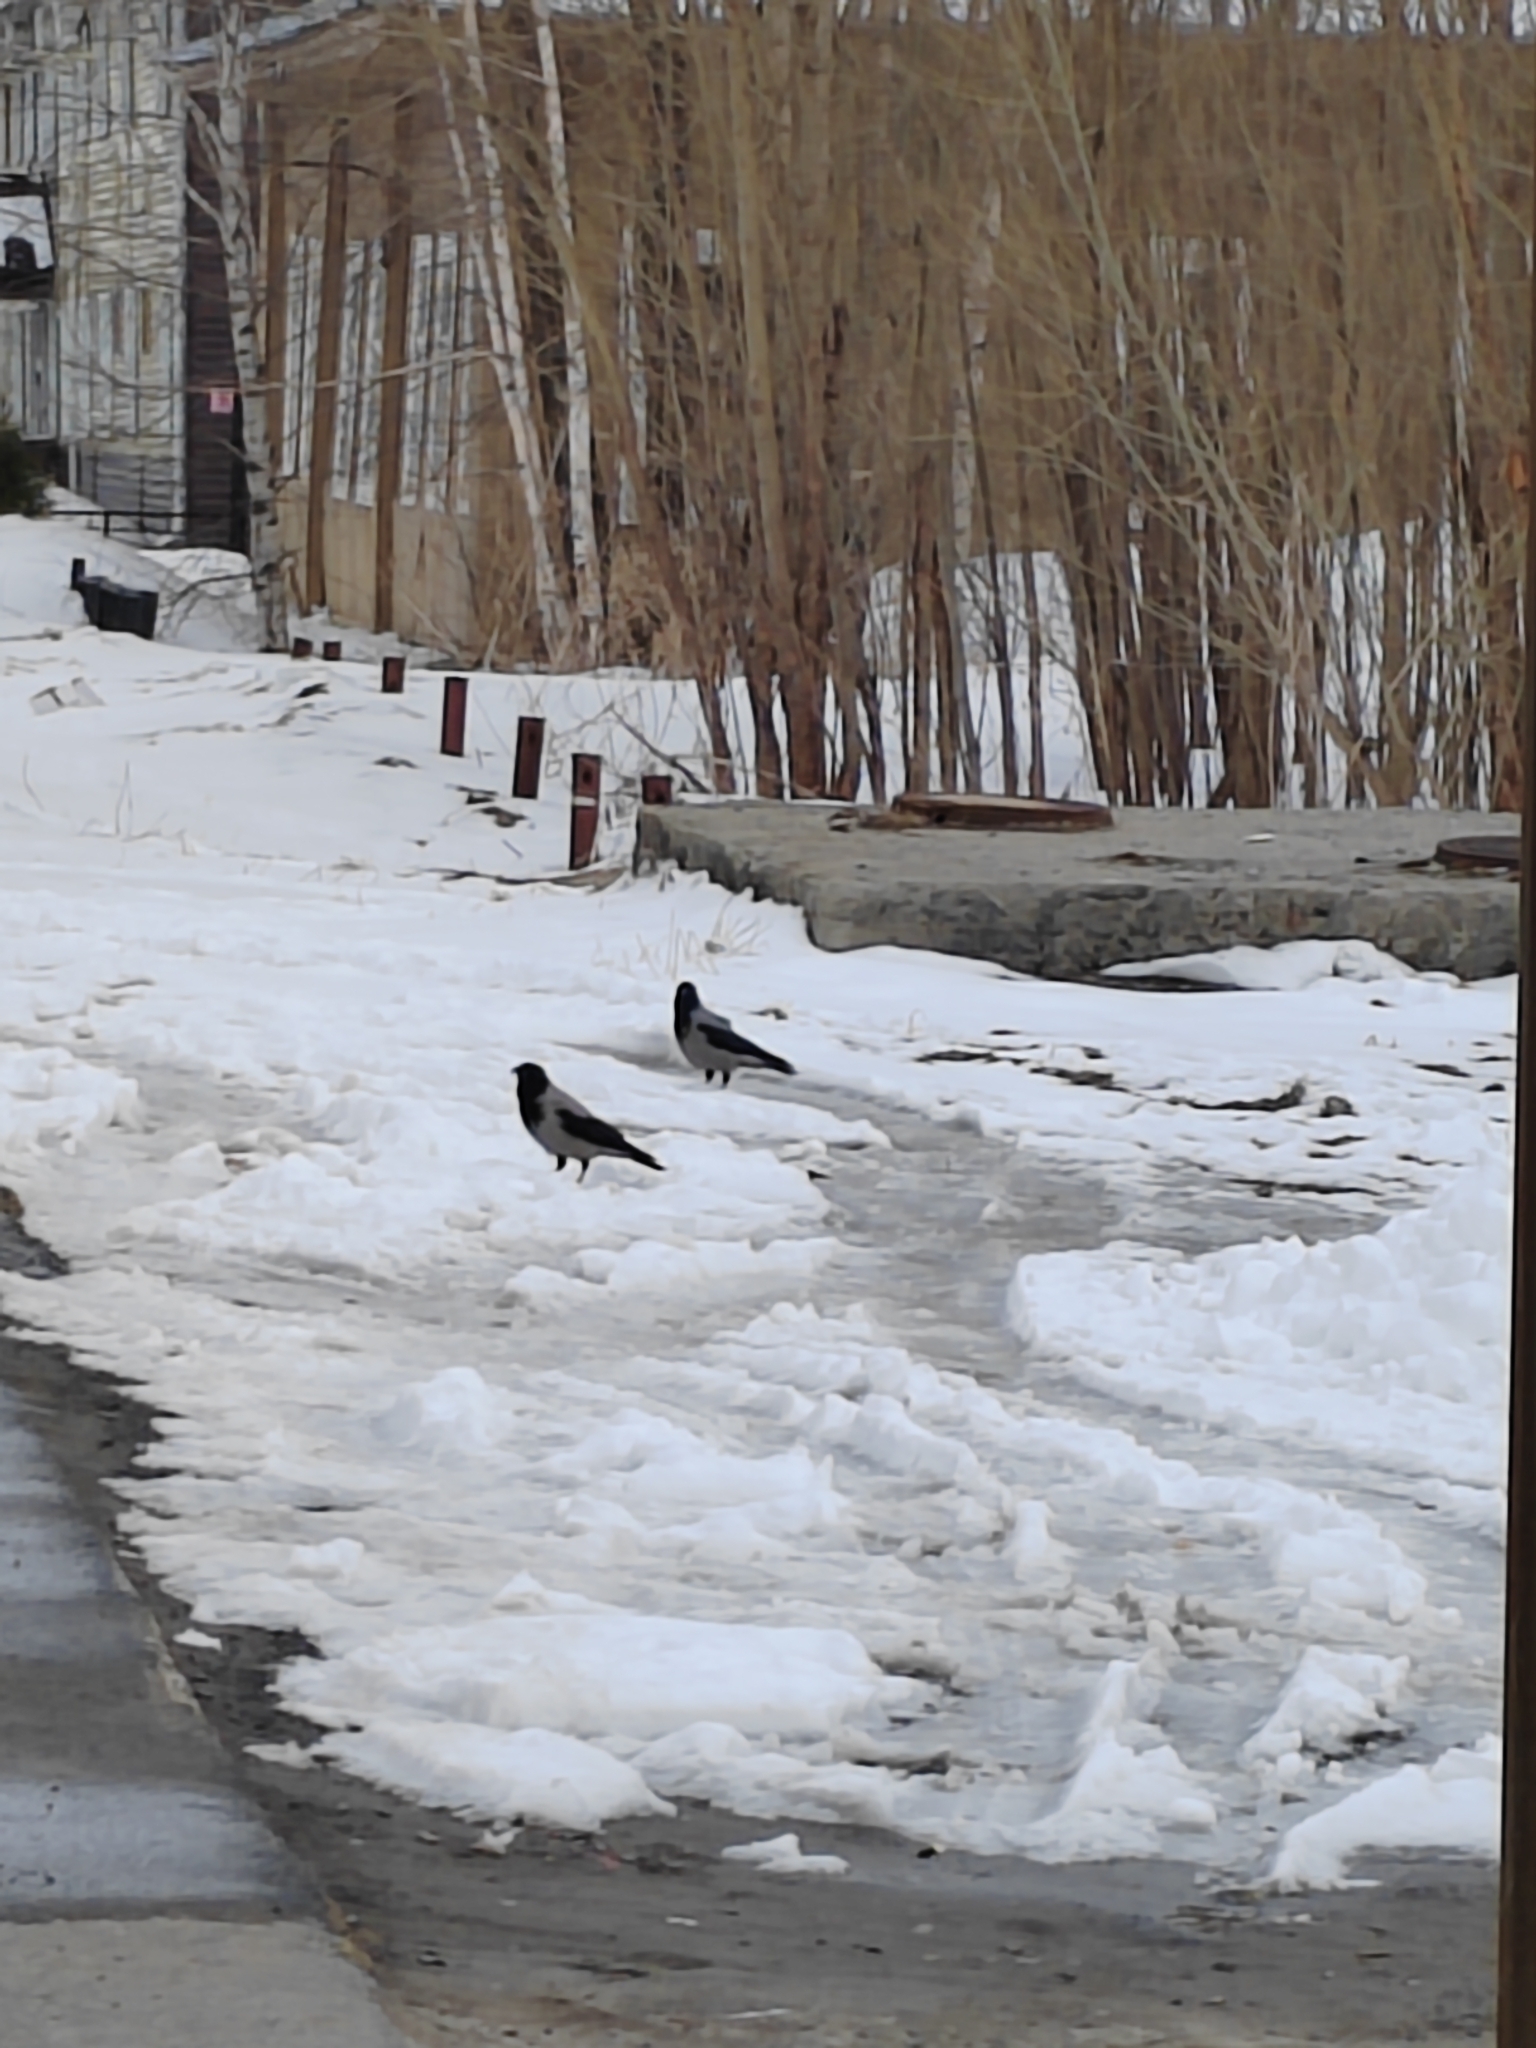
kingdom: Animalia
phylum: Chordata
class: Aves
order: Passeriformes
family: Corvidae
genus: Corvus
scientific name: Corvus cornix
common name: Hooded crow
